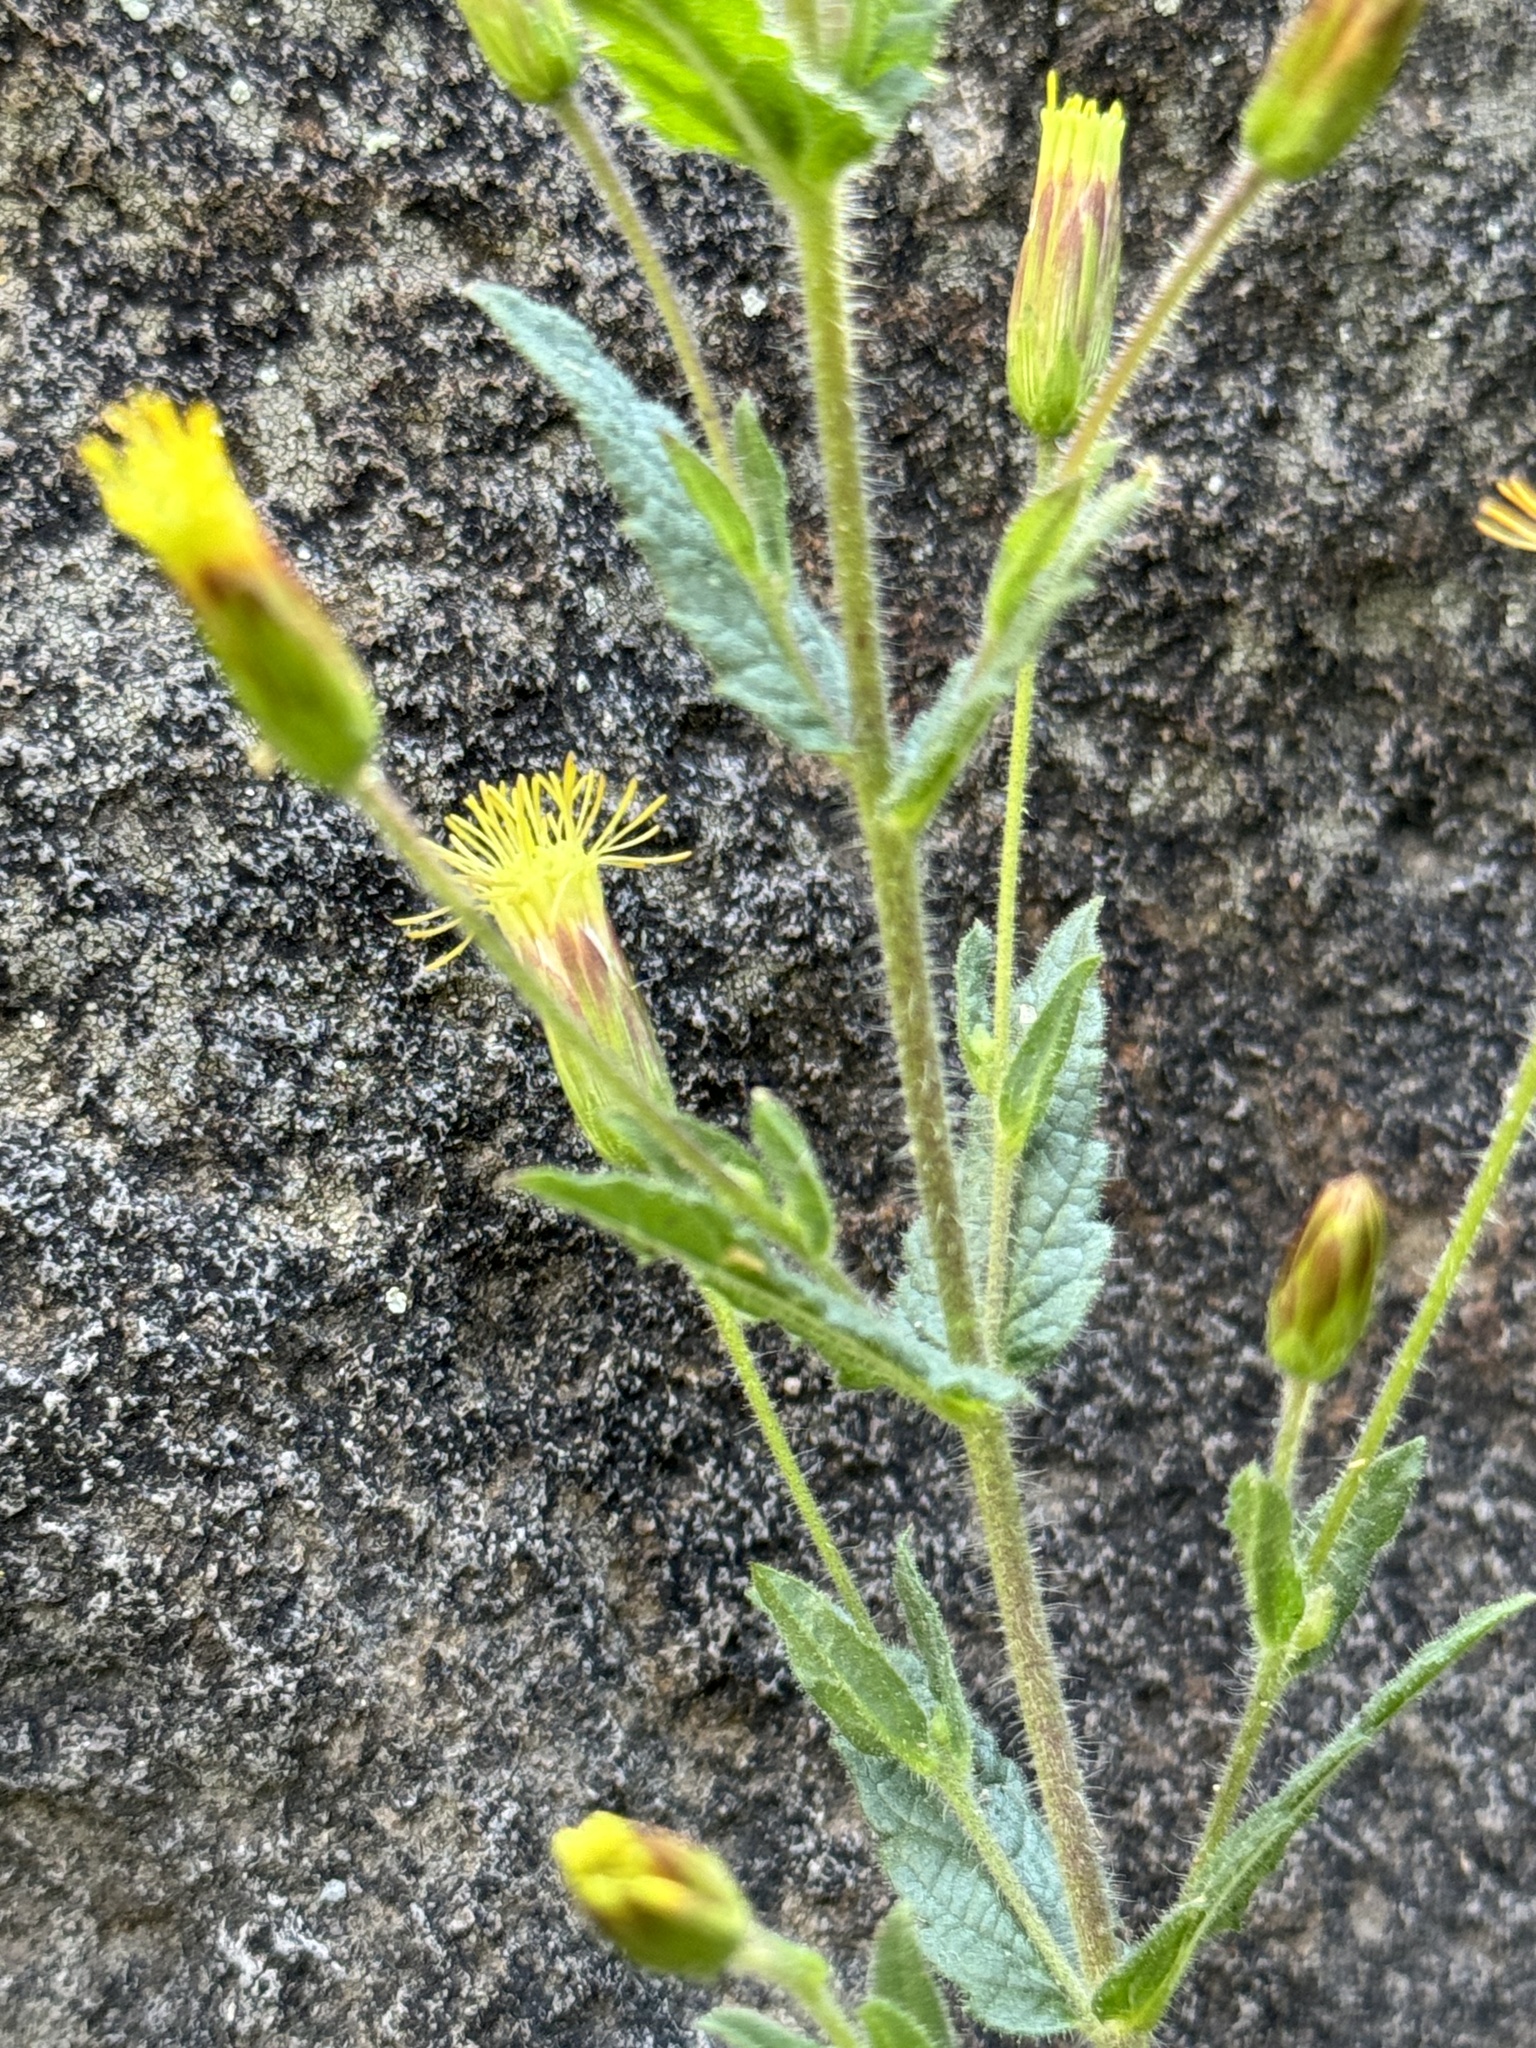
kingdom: Plantae
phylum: Tracheophyta
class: Magnoliopsida
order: Asterales
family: Asteraceae
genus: Brickellia
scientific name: Brickellia amplexicaulis
